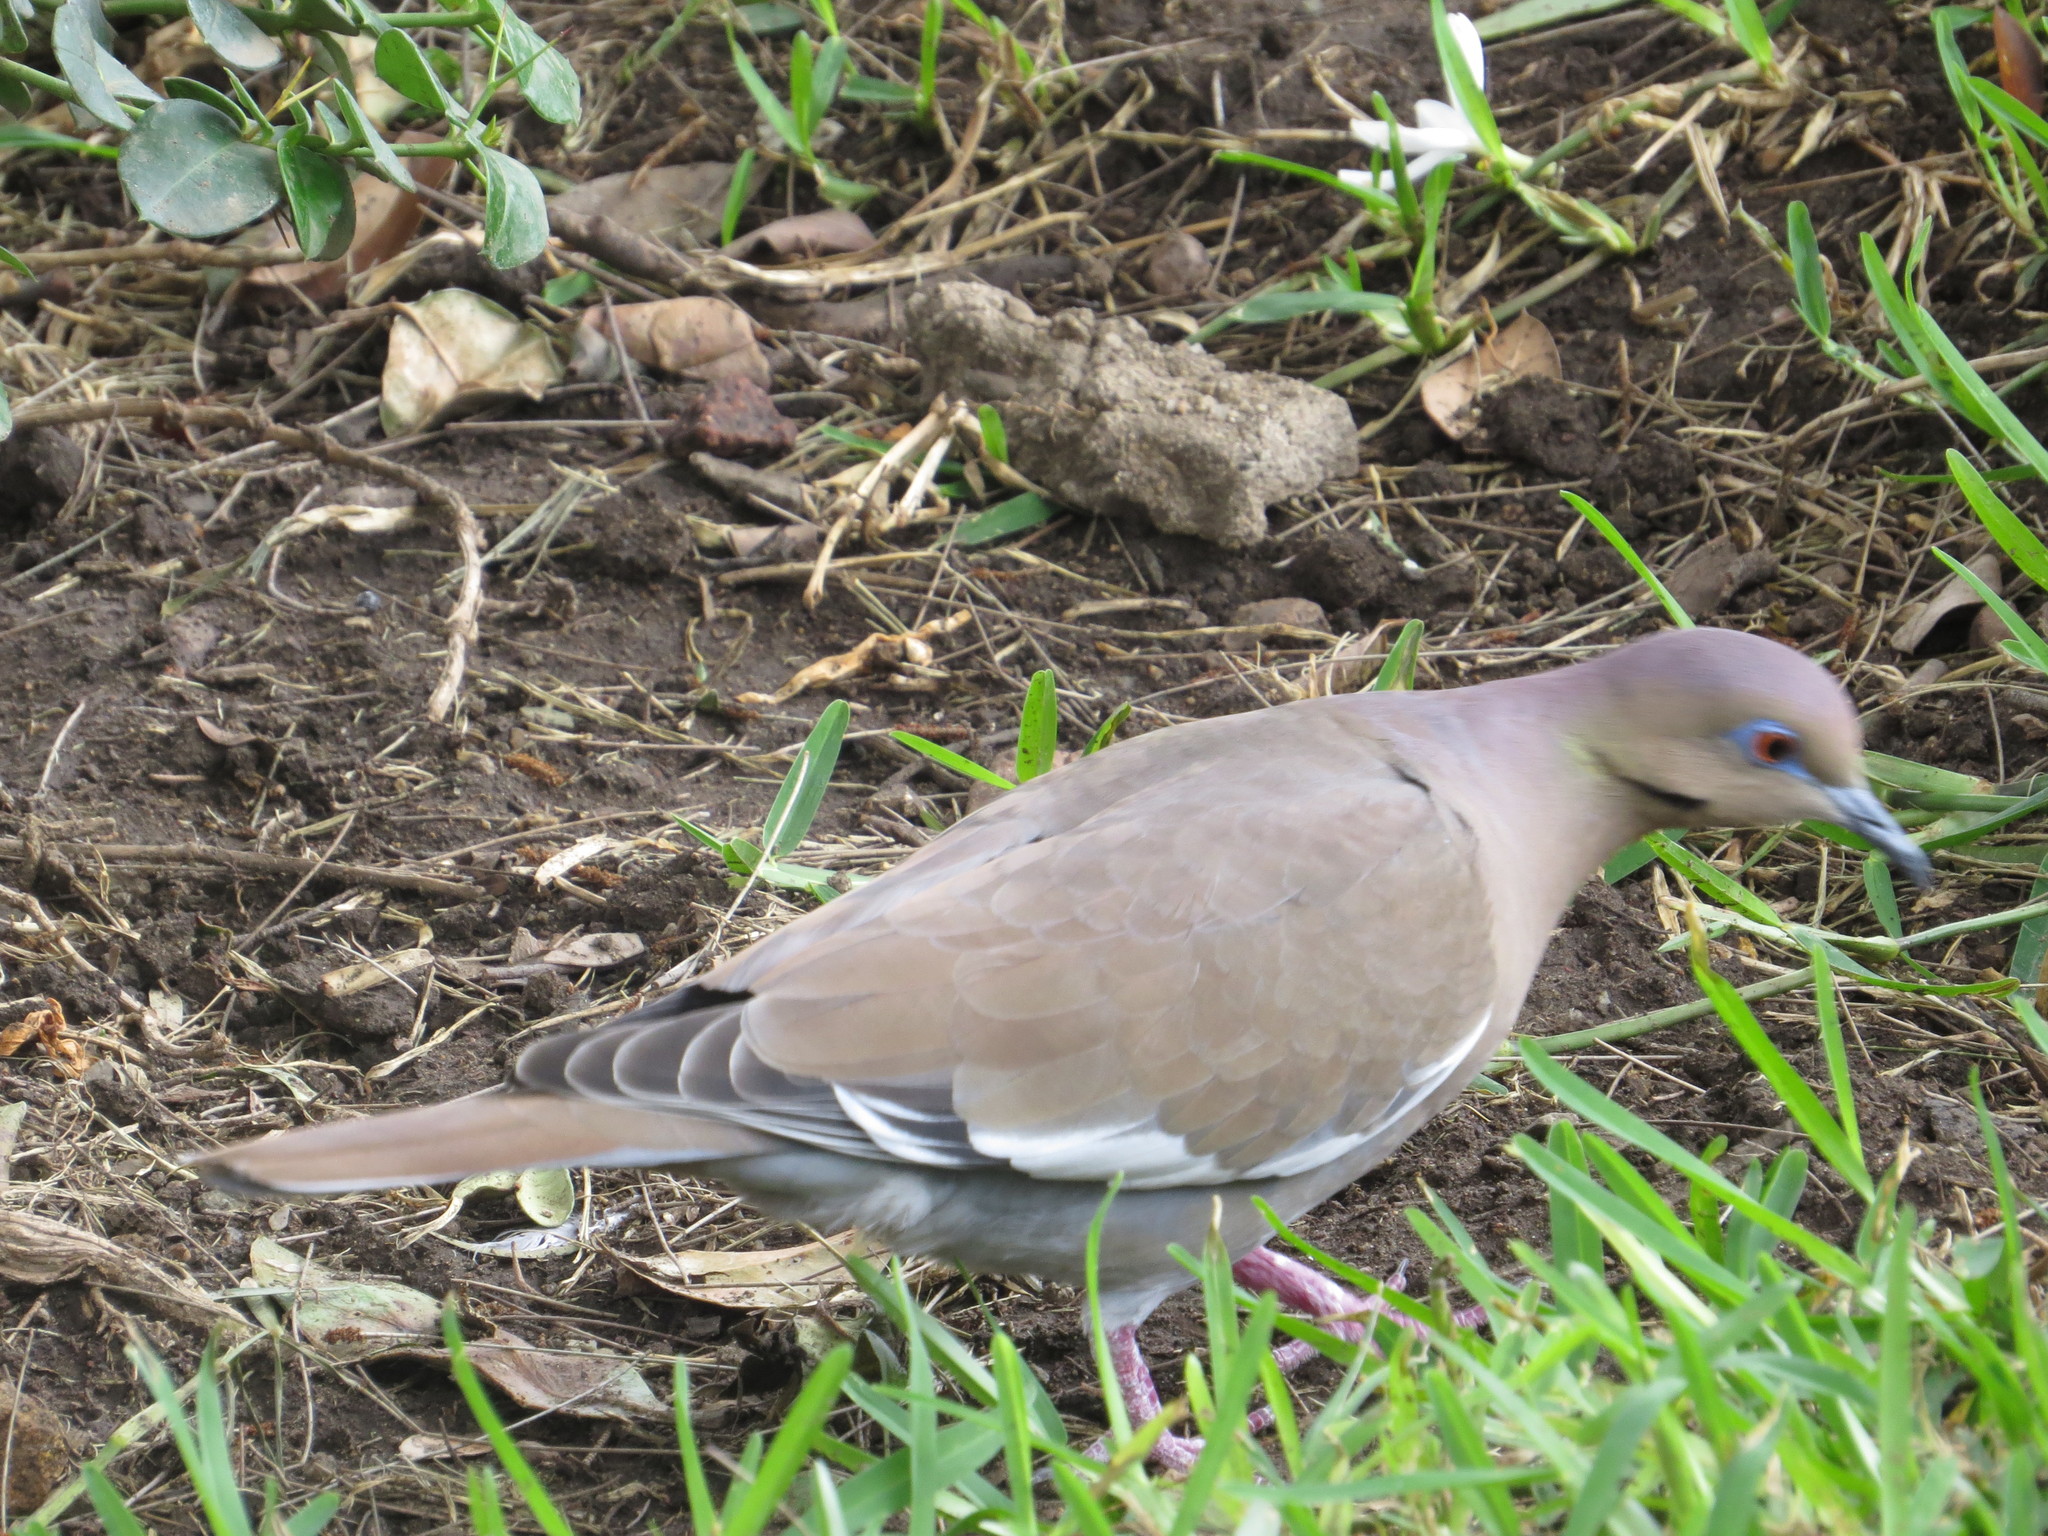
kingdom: Animalia
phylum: Chordata
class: Aves
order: Columbiformes
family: Columbidae
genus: Zenaida
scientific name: Zenaida asiatica
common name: White-winged dove
